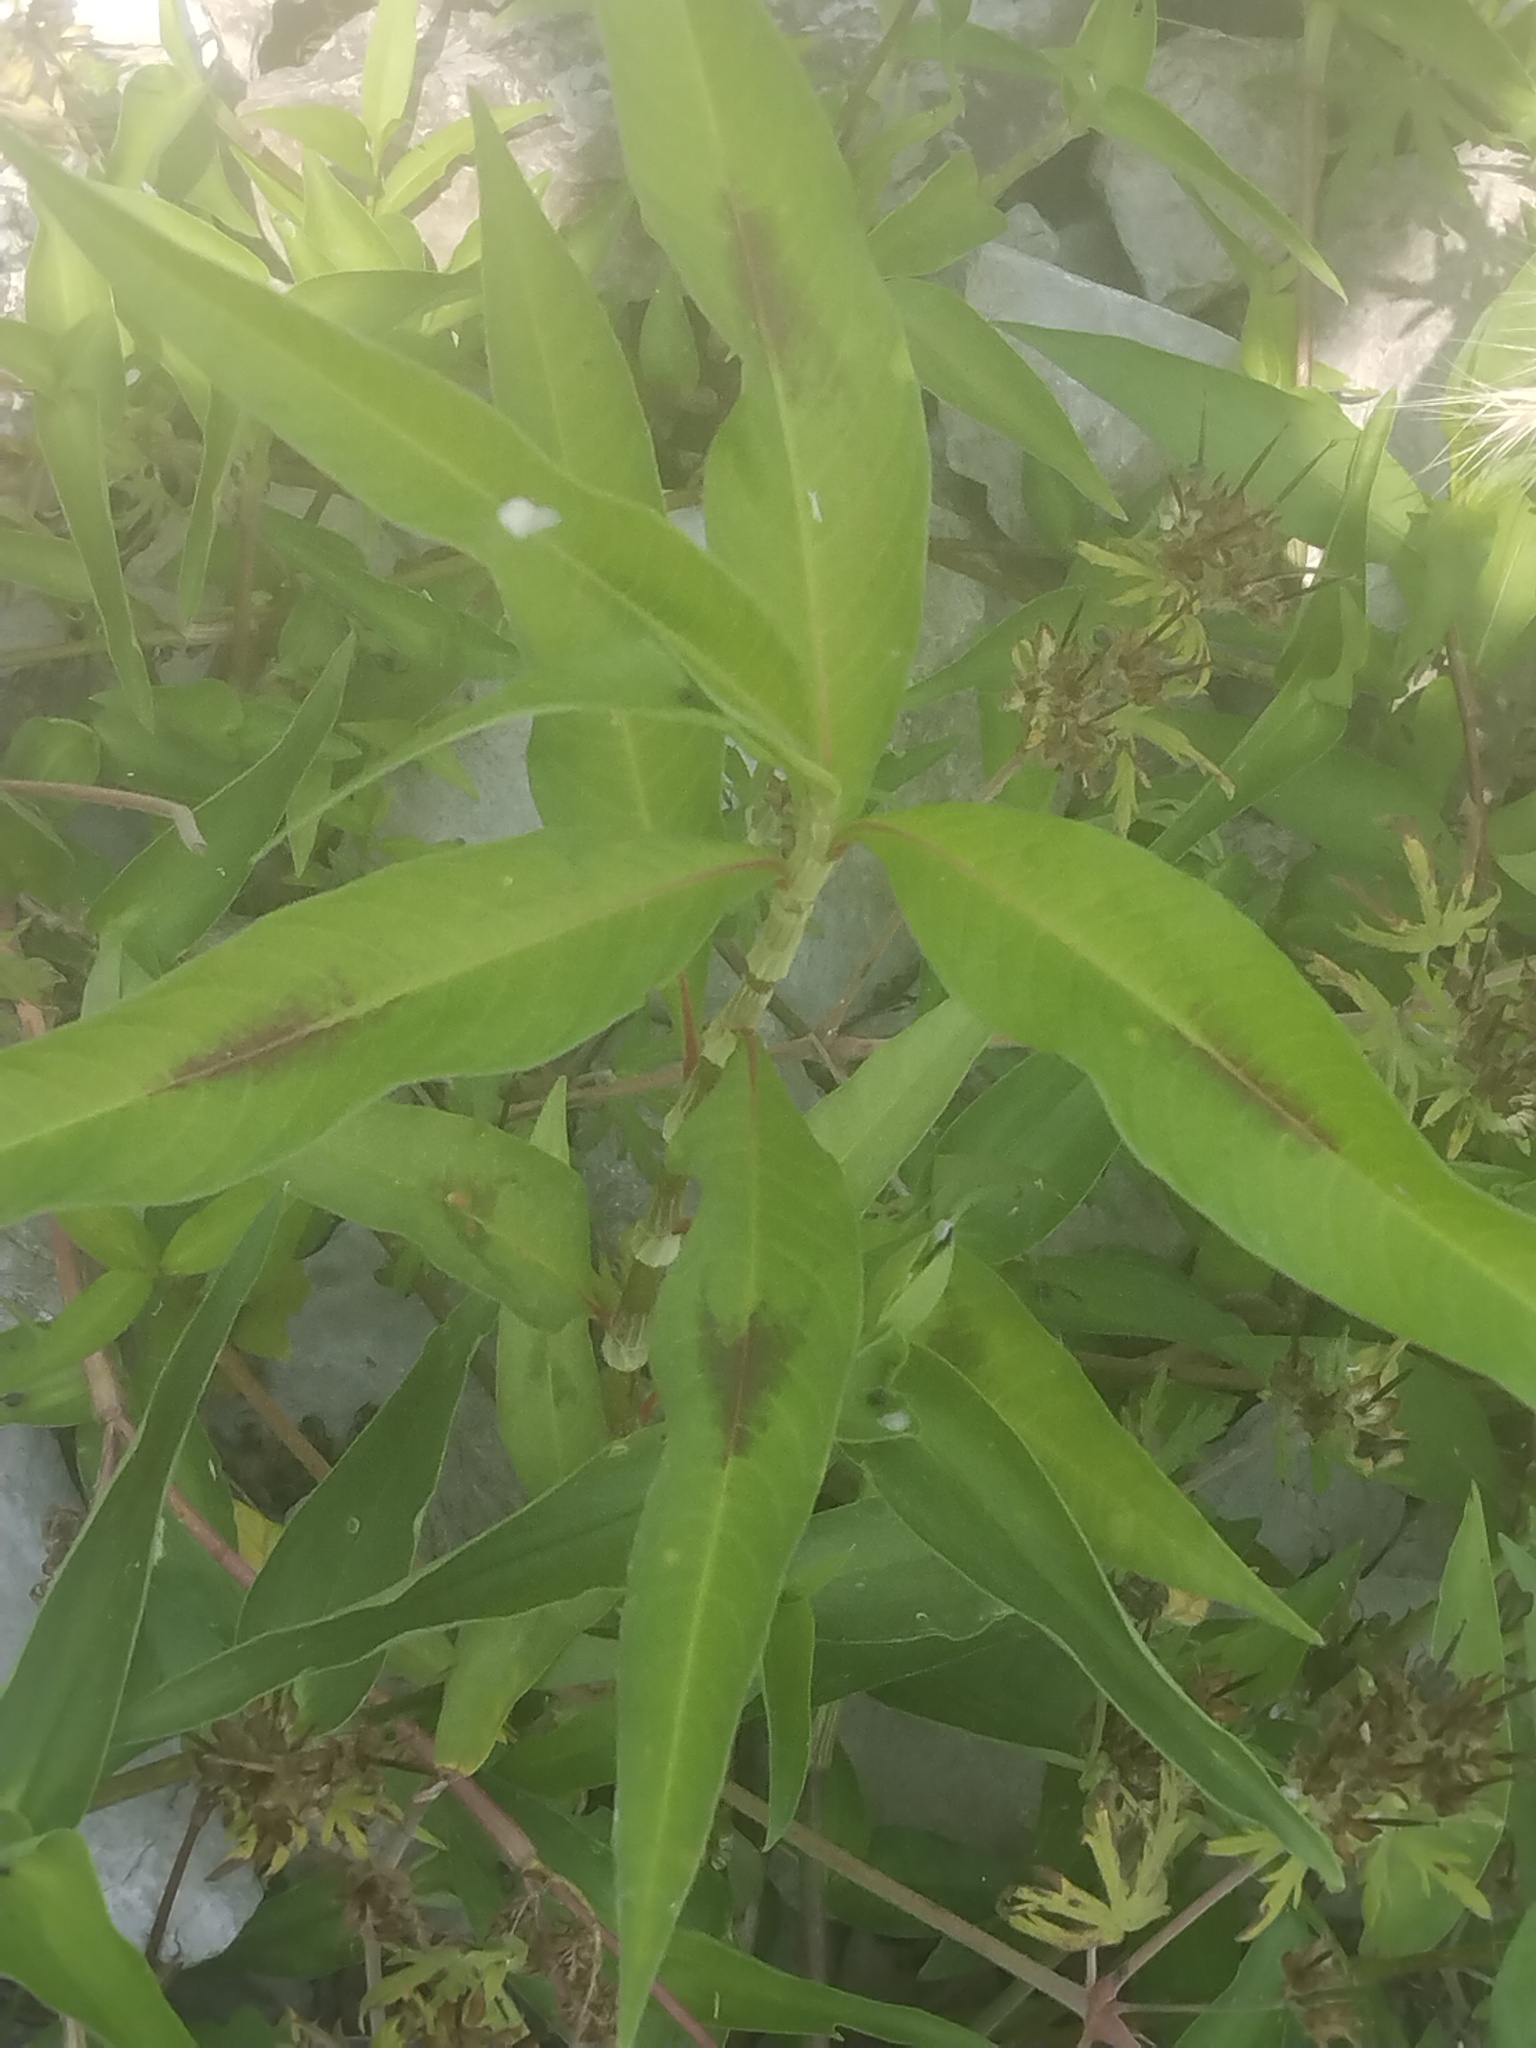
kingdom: Plantae
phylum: Tracheophyta
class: Magnoliopsida
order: Caryophyllales
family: Polygonaceae
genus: Persicaria
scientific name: Persicaria lapathifolia
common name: Curlytop knotweed
